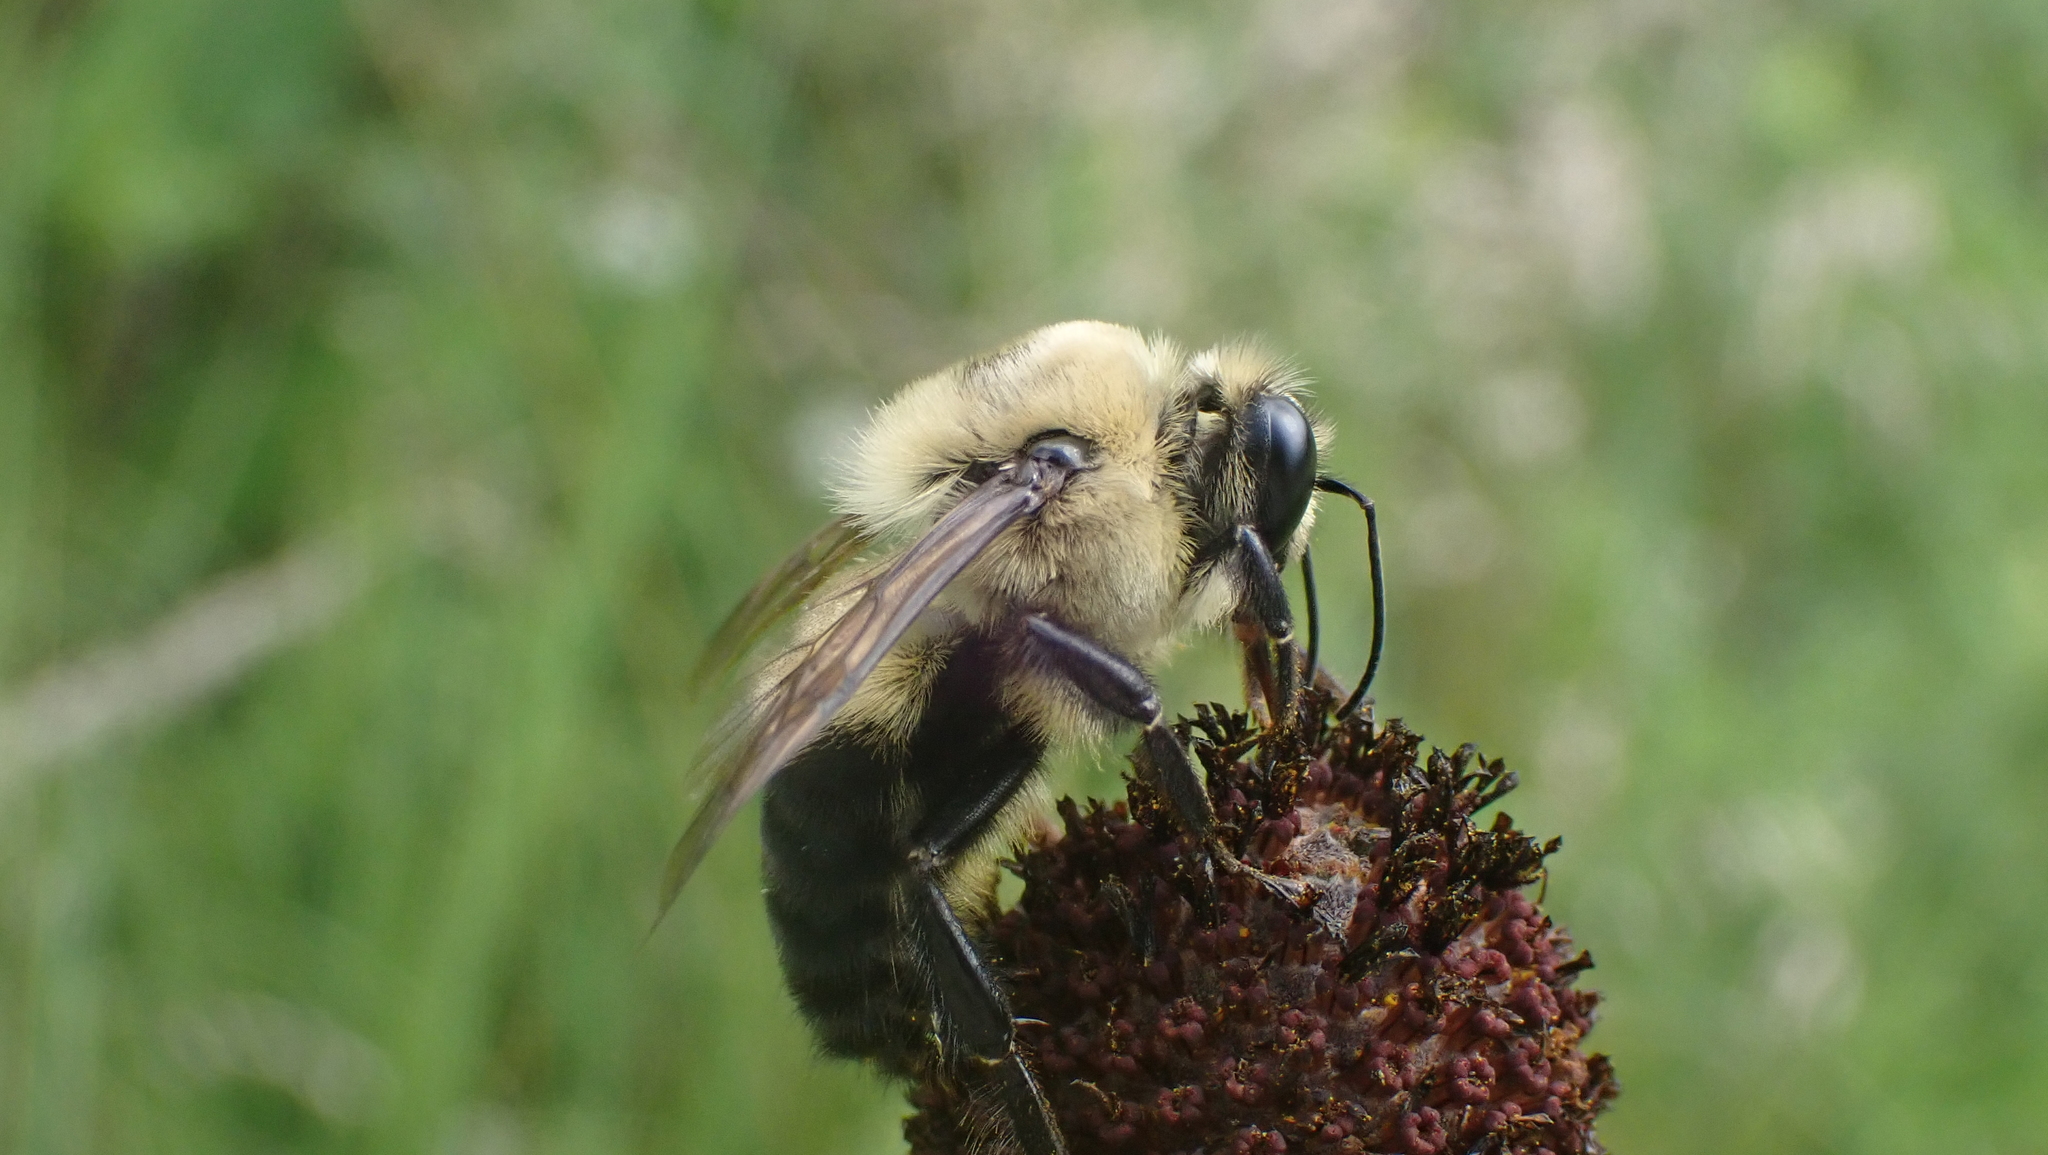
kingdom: Animalia
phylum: Arthropoda
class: Insecta
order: Hymenoptera
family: Apidae
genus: Bombus
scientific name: Bombus griseocollis
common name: Brown-belted bumble bee
